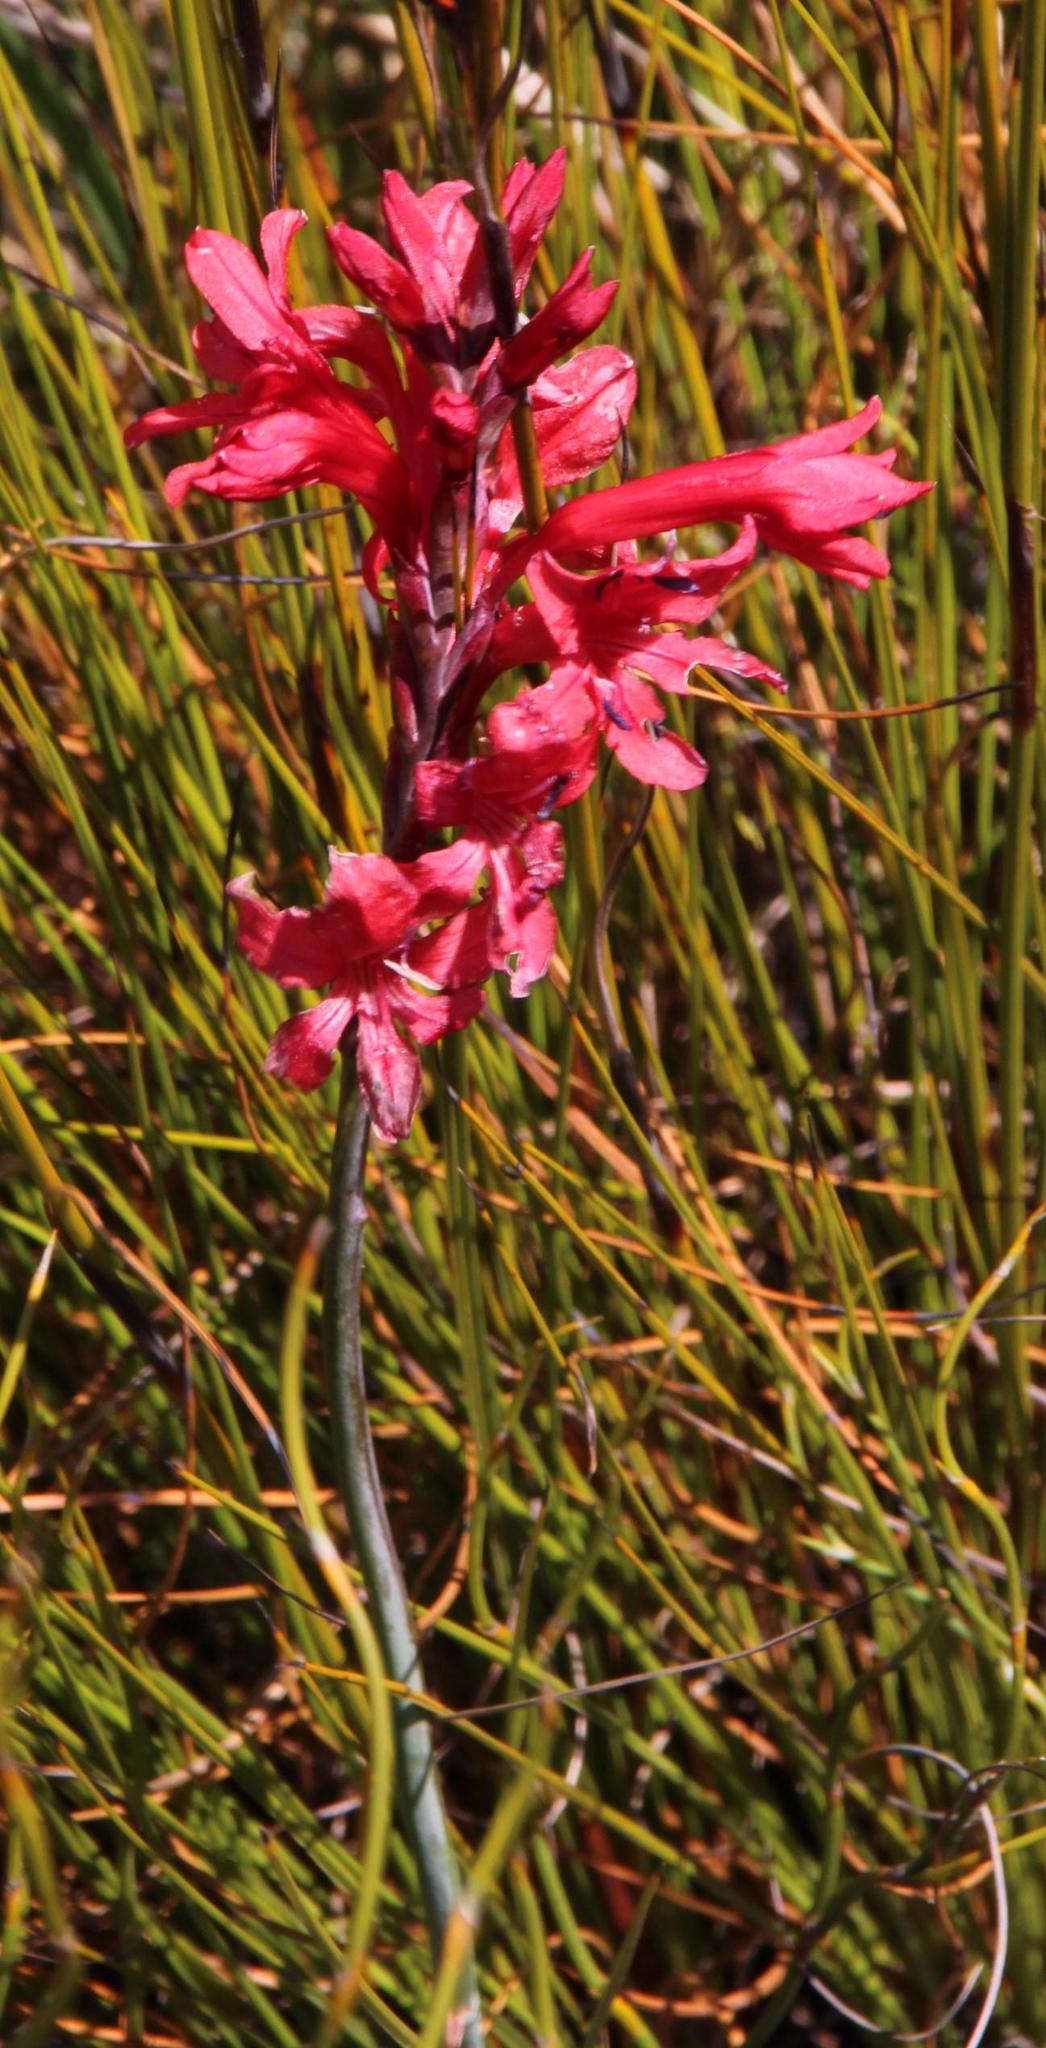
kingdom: Plantae
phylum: Tracheophyta
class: Liliopsida
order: Asparagales
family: Iridaceae
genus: Tritoniopsis
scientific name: Tritoniopsis pulchra
